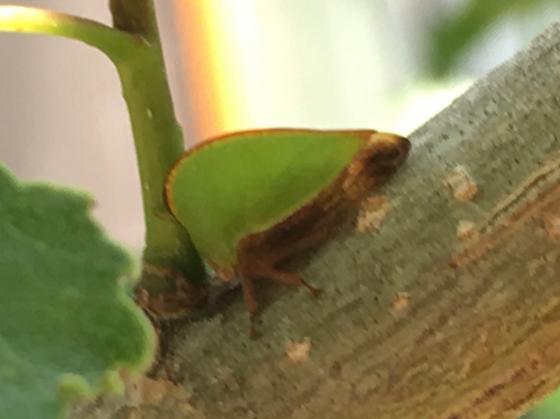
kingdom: Animalia
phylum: Arthropoda
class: Insecta
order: Hemiptera
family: Membracidae
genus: Archasia
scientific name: Archasia belfragei
